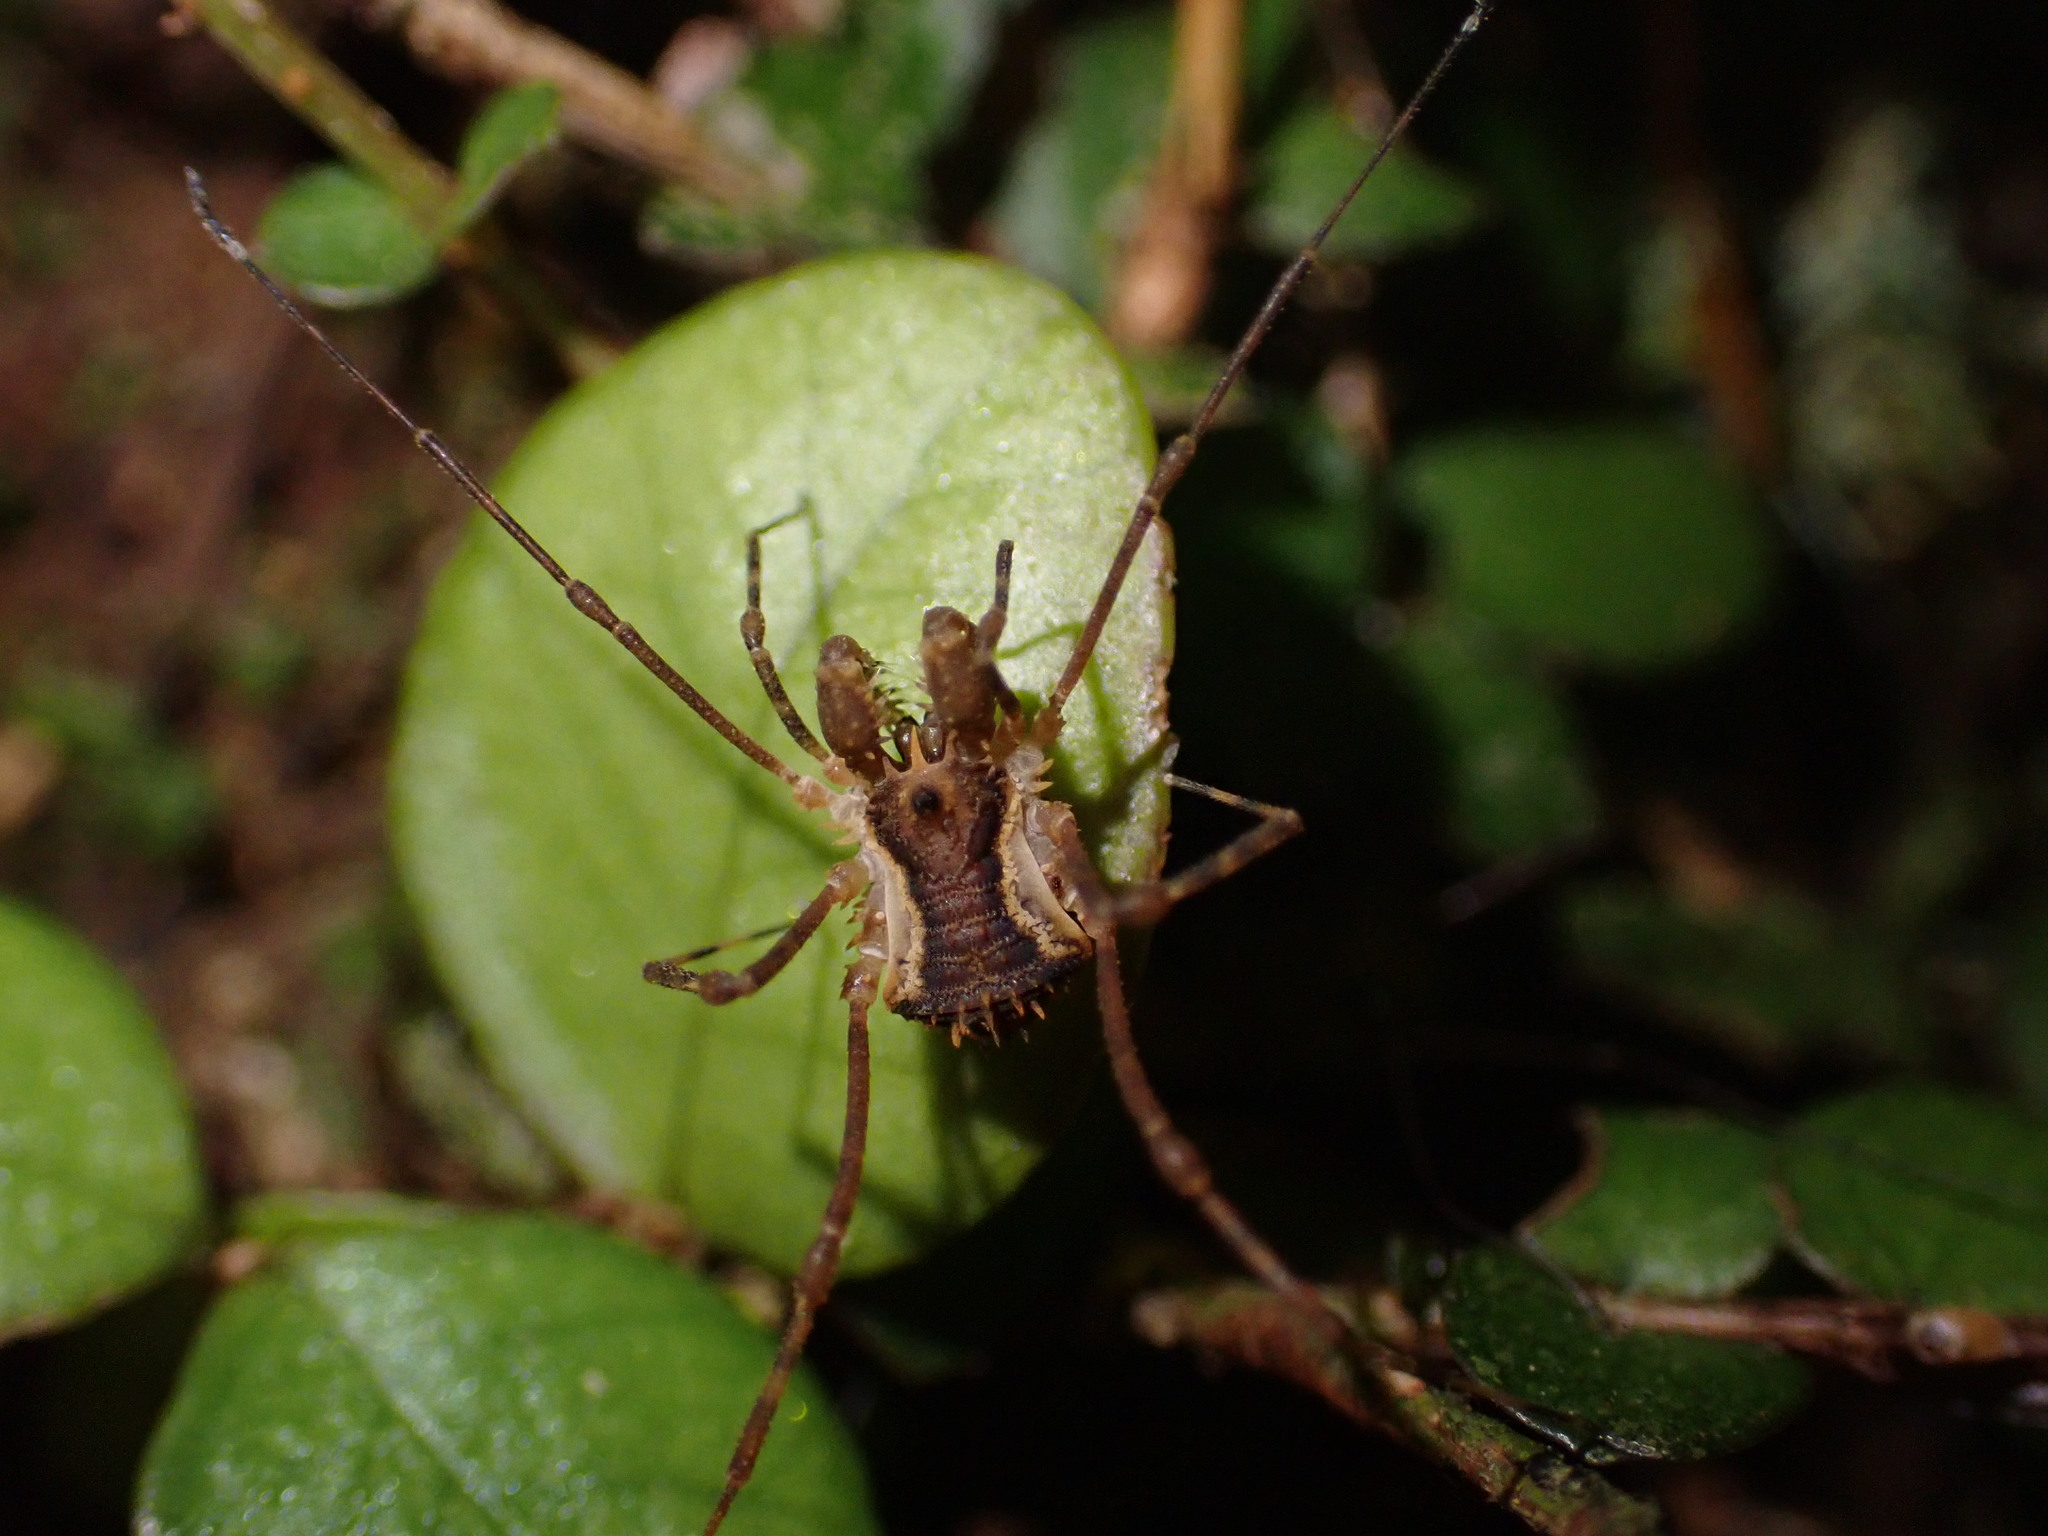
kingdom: Animalia
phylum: Arthropoda
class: Arachnida
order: Opiliones
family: Triaenonychidae
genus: Algidia
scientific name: Algidia chiltoni
